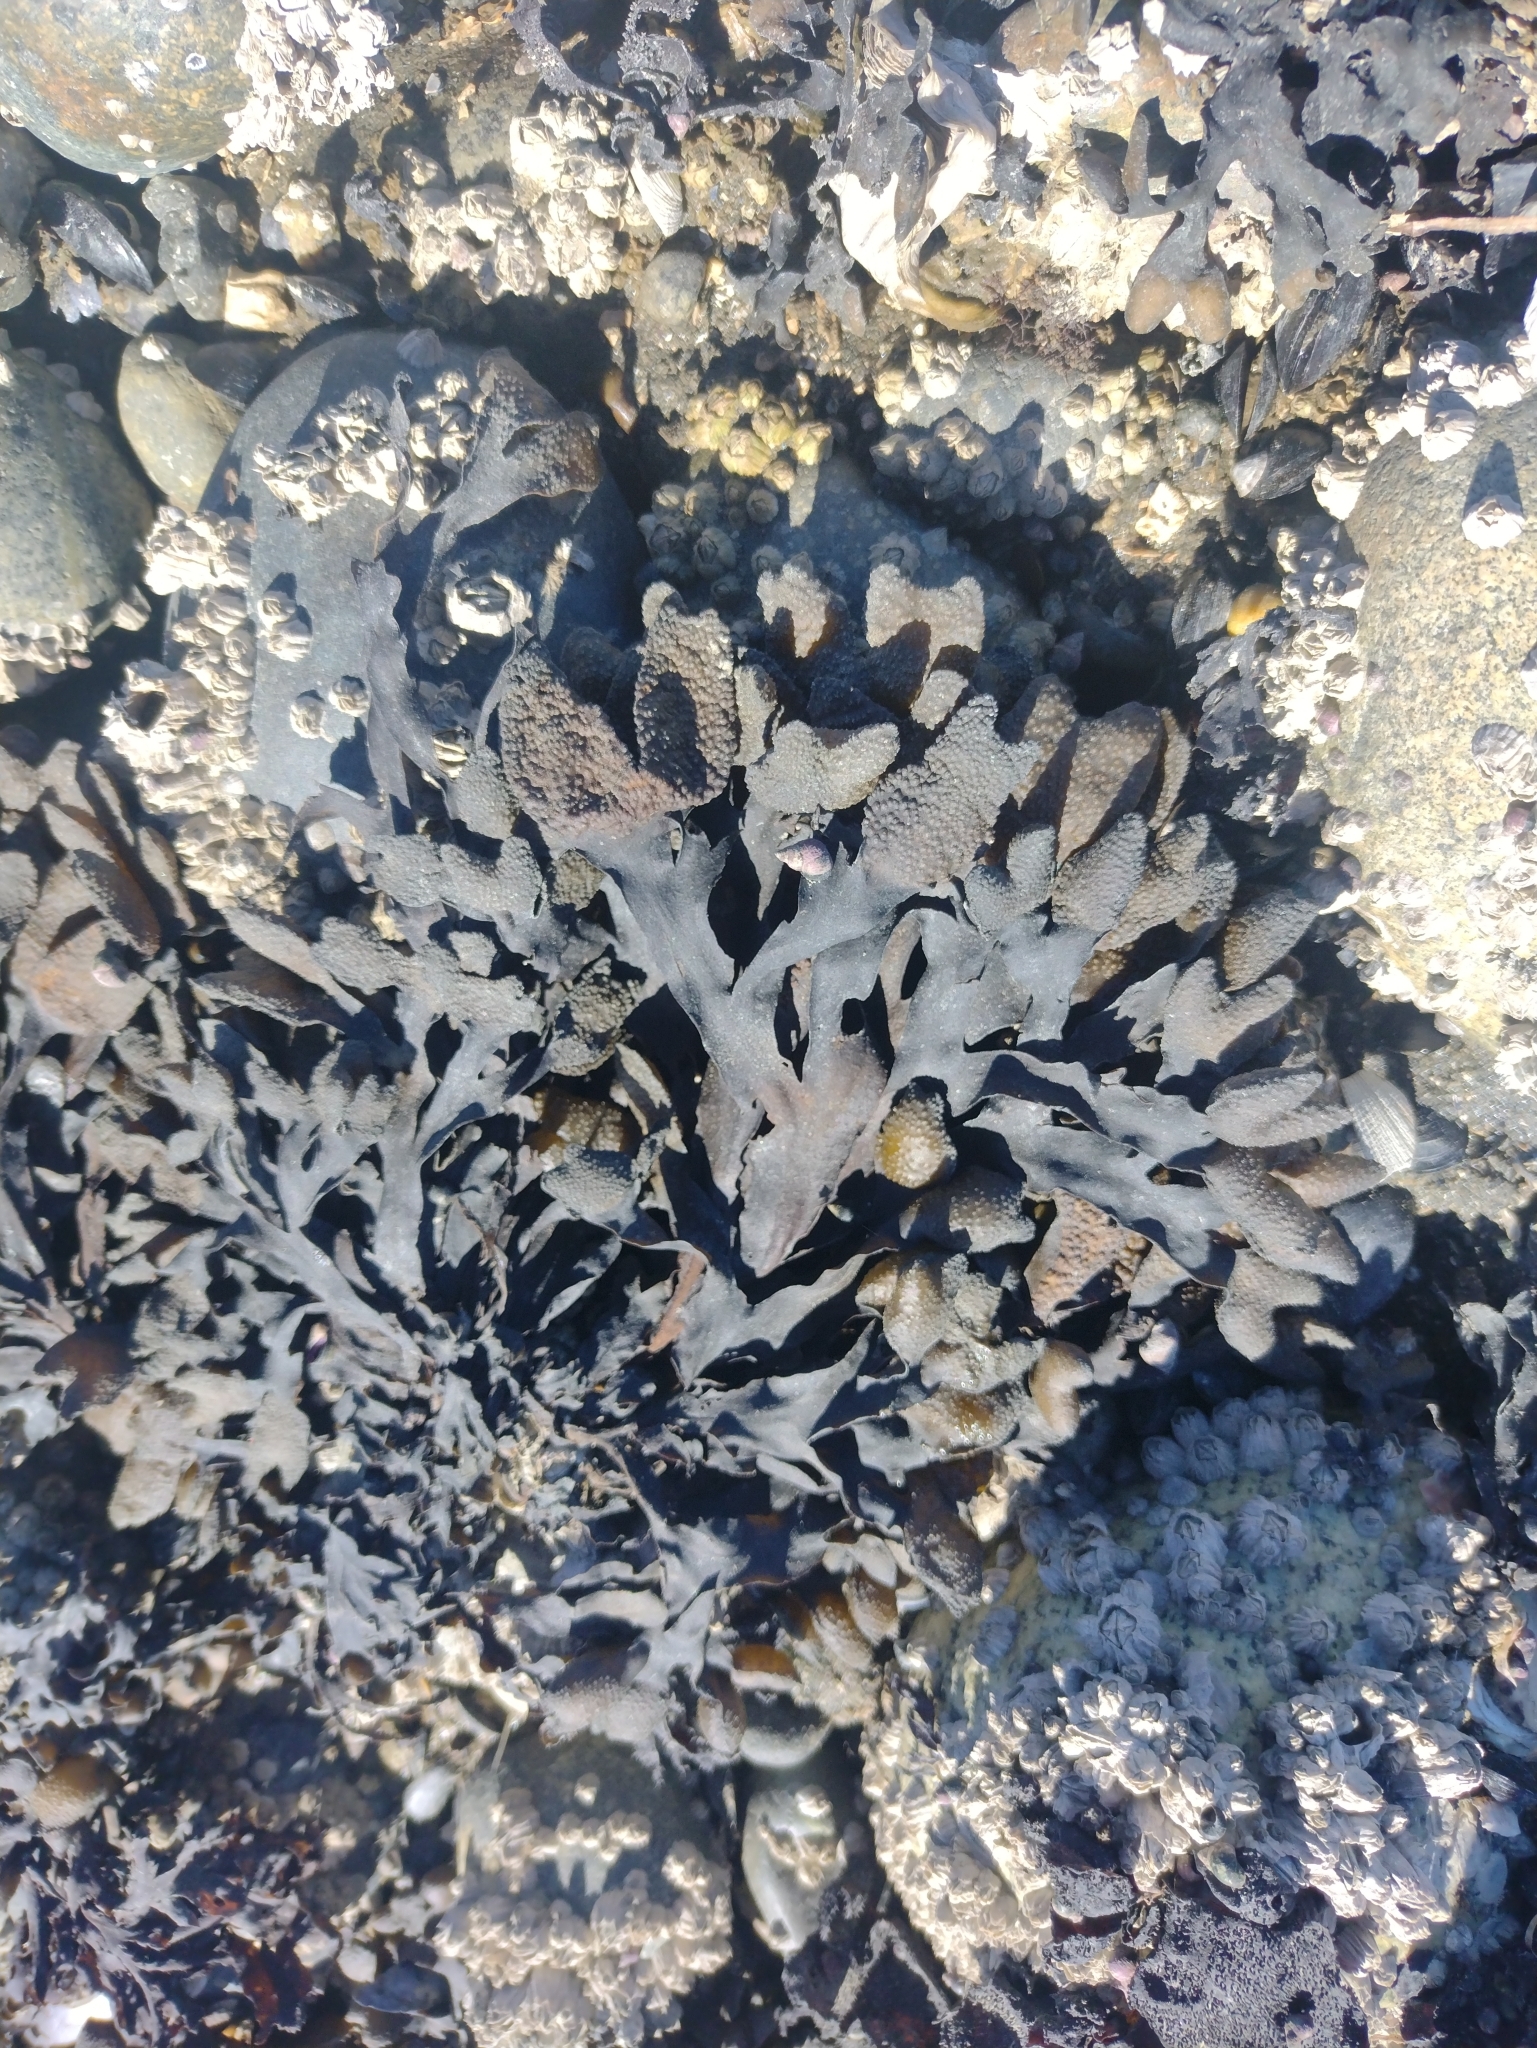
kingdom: Chromista
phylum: Ochrophyta
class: Phaeophyceae
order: Fucales
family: Fucaceae
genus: Fucus
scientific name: Fucus distichus
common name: Rockweed
